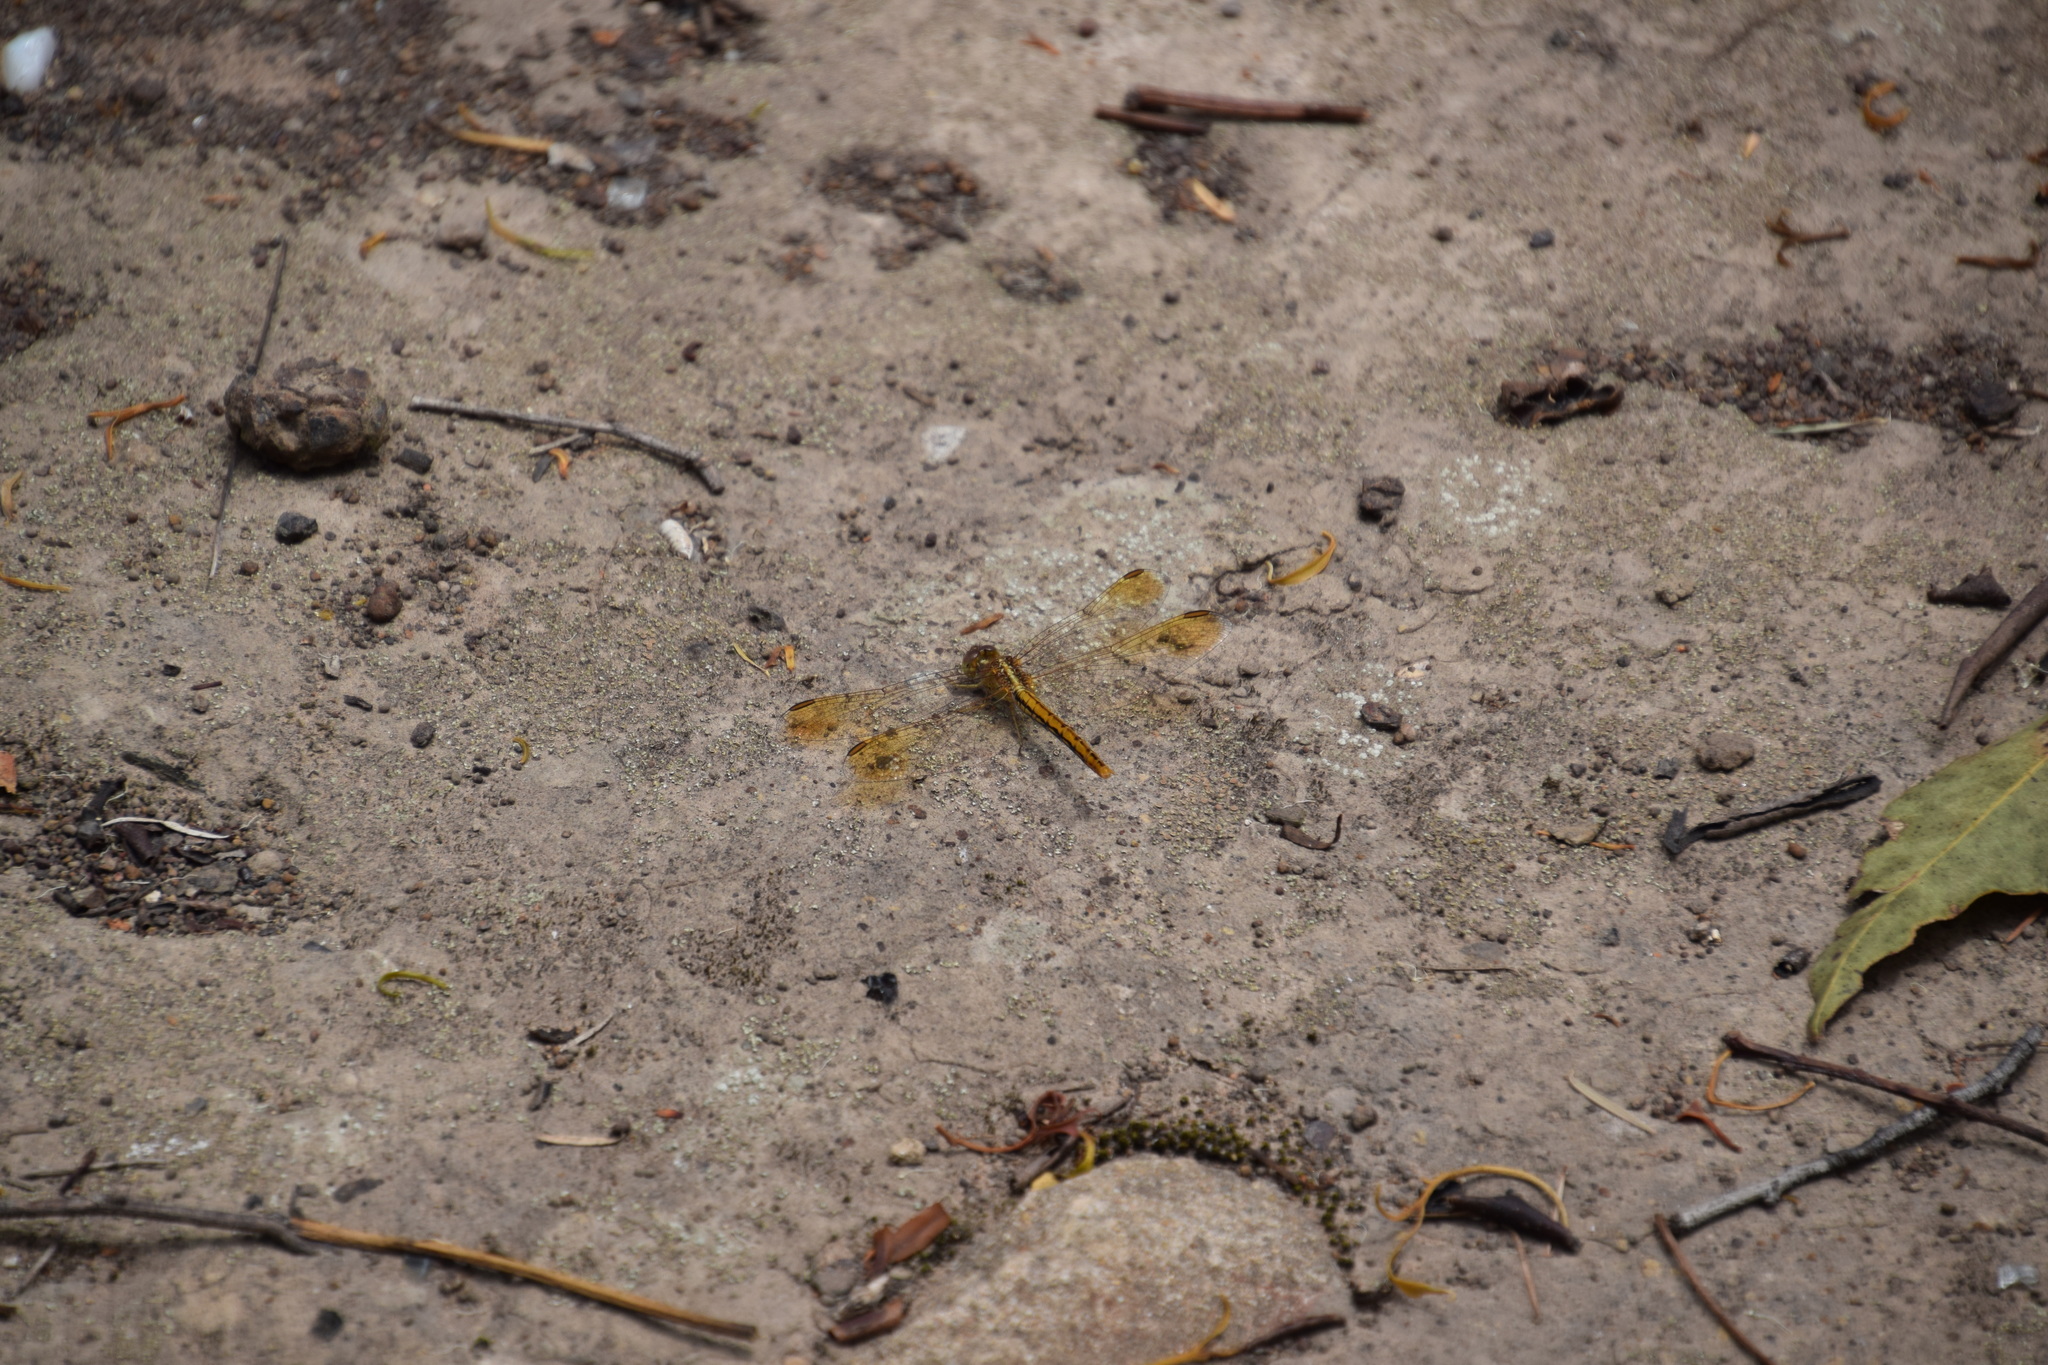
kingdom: Animalia
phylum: Arthropoda
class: Insecta
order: Odonata
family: Libellulidae
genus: Diplacodes
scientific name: Diplacodes haematodes
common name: Scarlet percher
